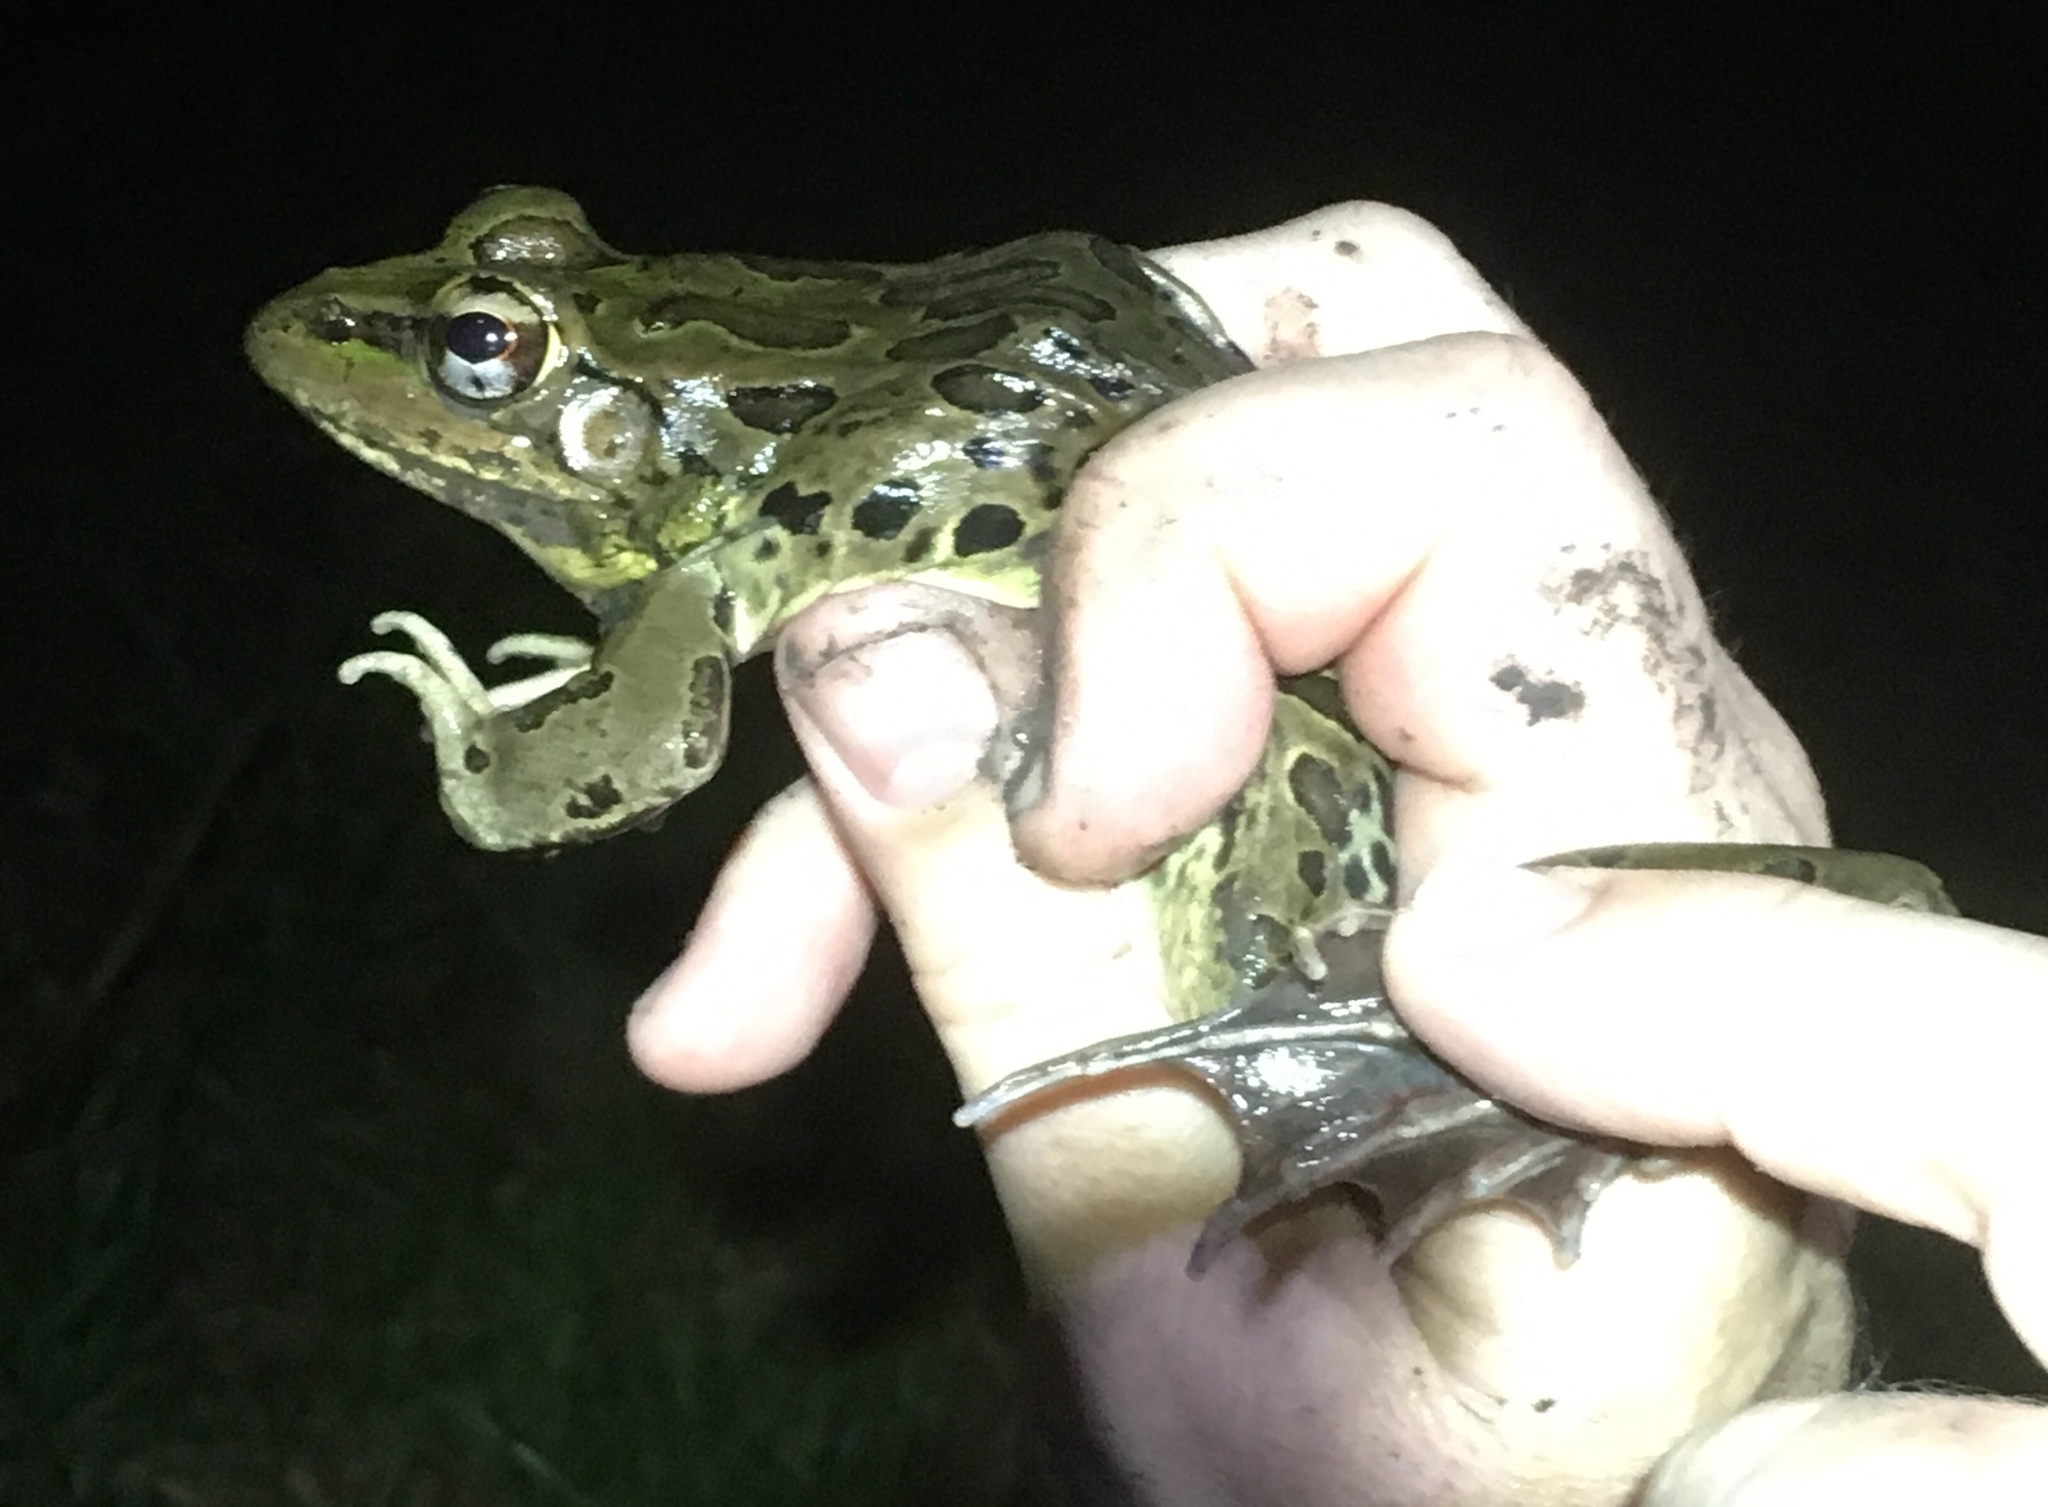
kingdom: Animalia
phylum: Chordata
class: Amphibia
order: Anura
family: Ranidae
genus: Lithobates
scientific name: Lithobates forreri
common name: Forrer's grass frog
